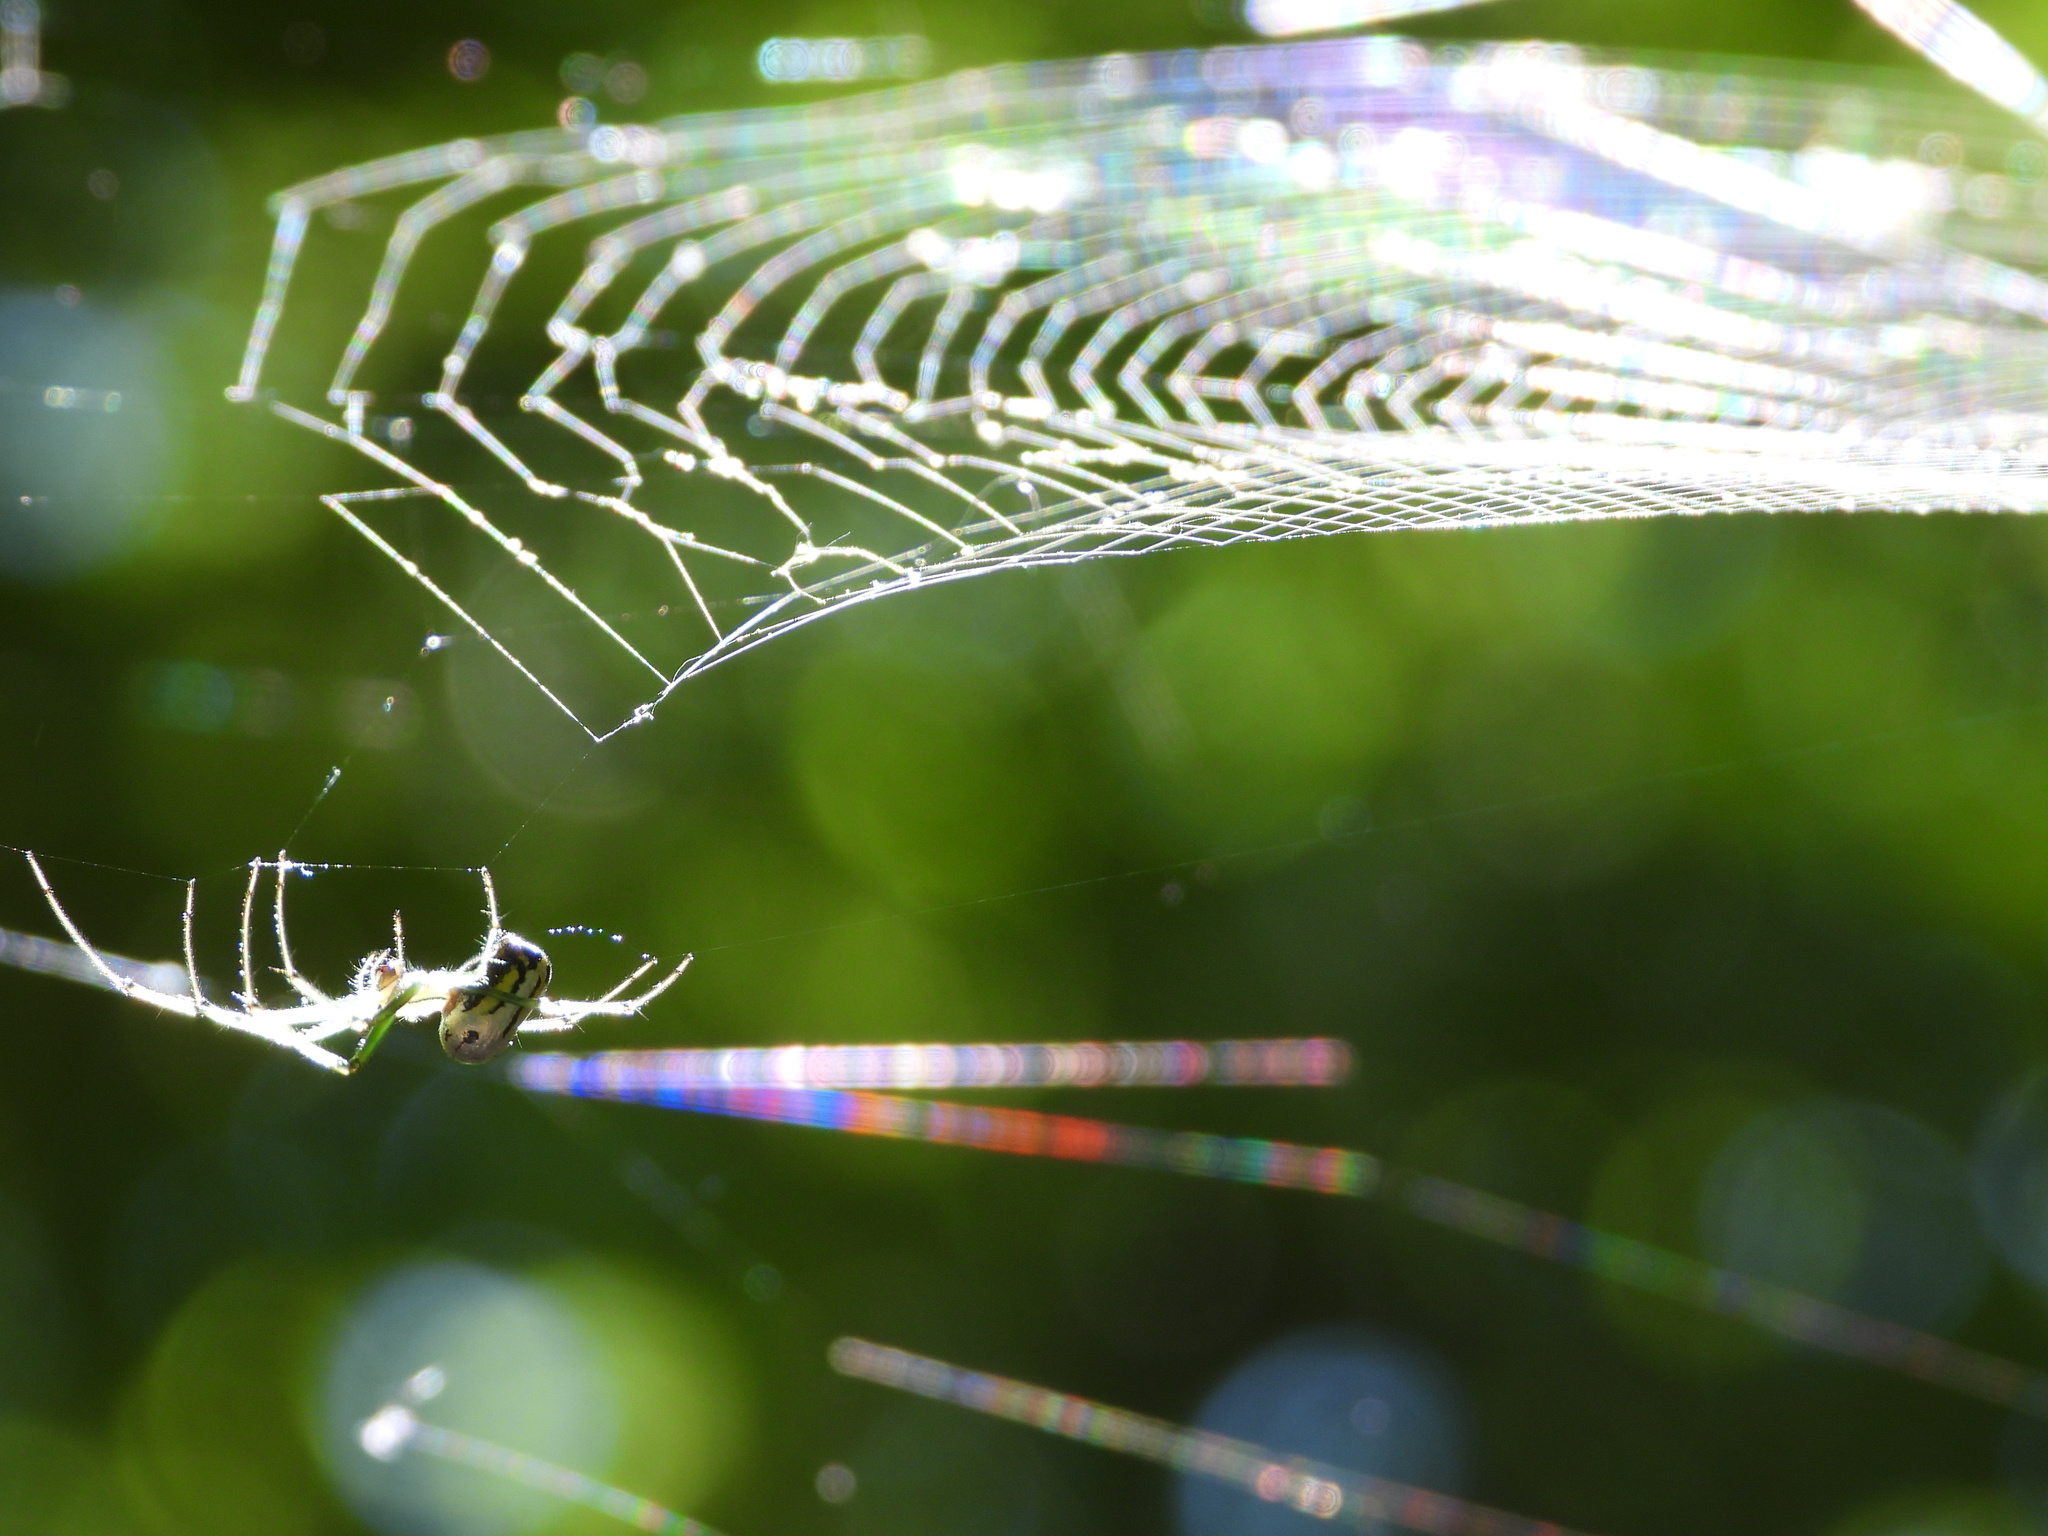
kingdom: Animalia
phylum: Arthropoda
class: Arachnida
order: Araneae
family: Tetragnathidae
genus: Leucauge
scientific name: Leucauge venusta
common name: Longjawed orb weavers
